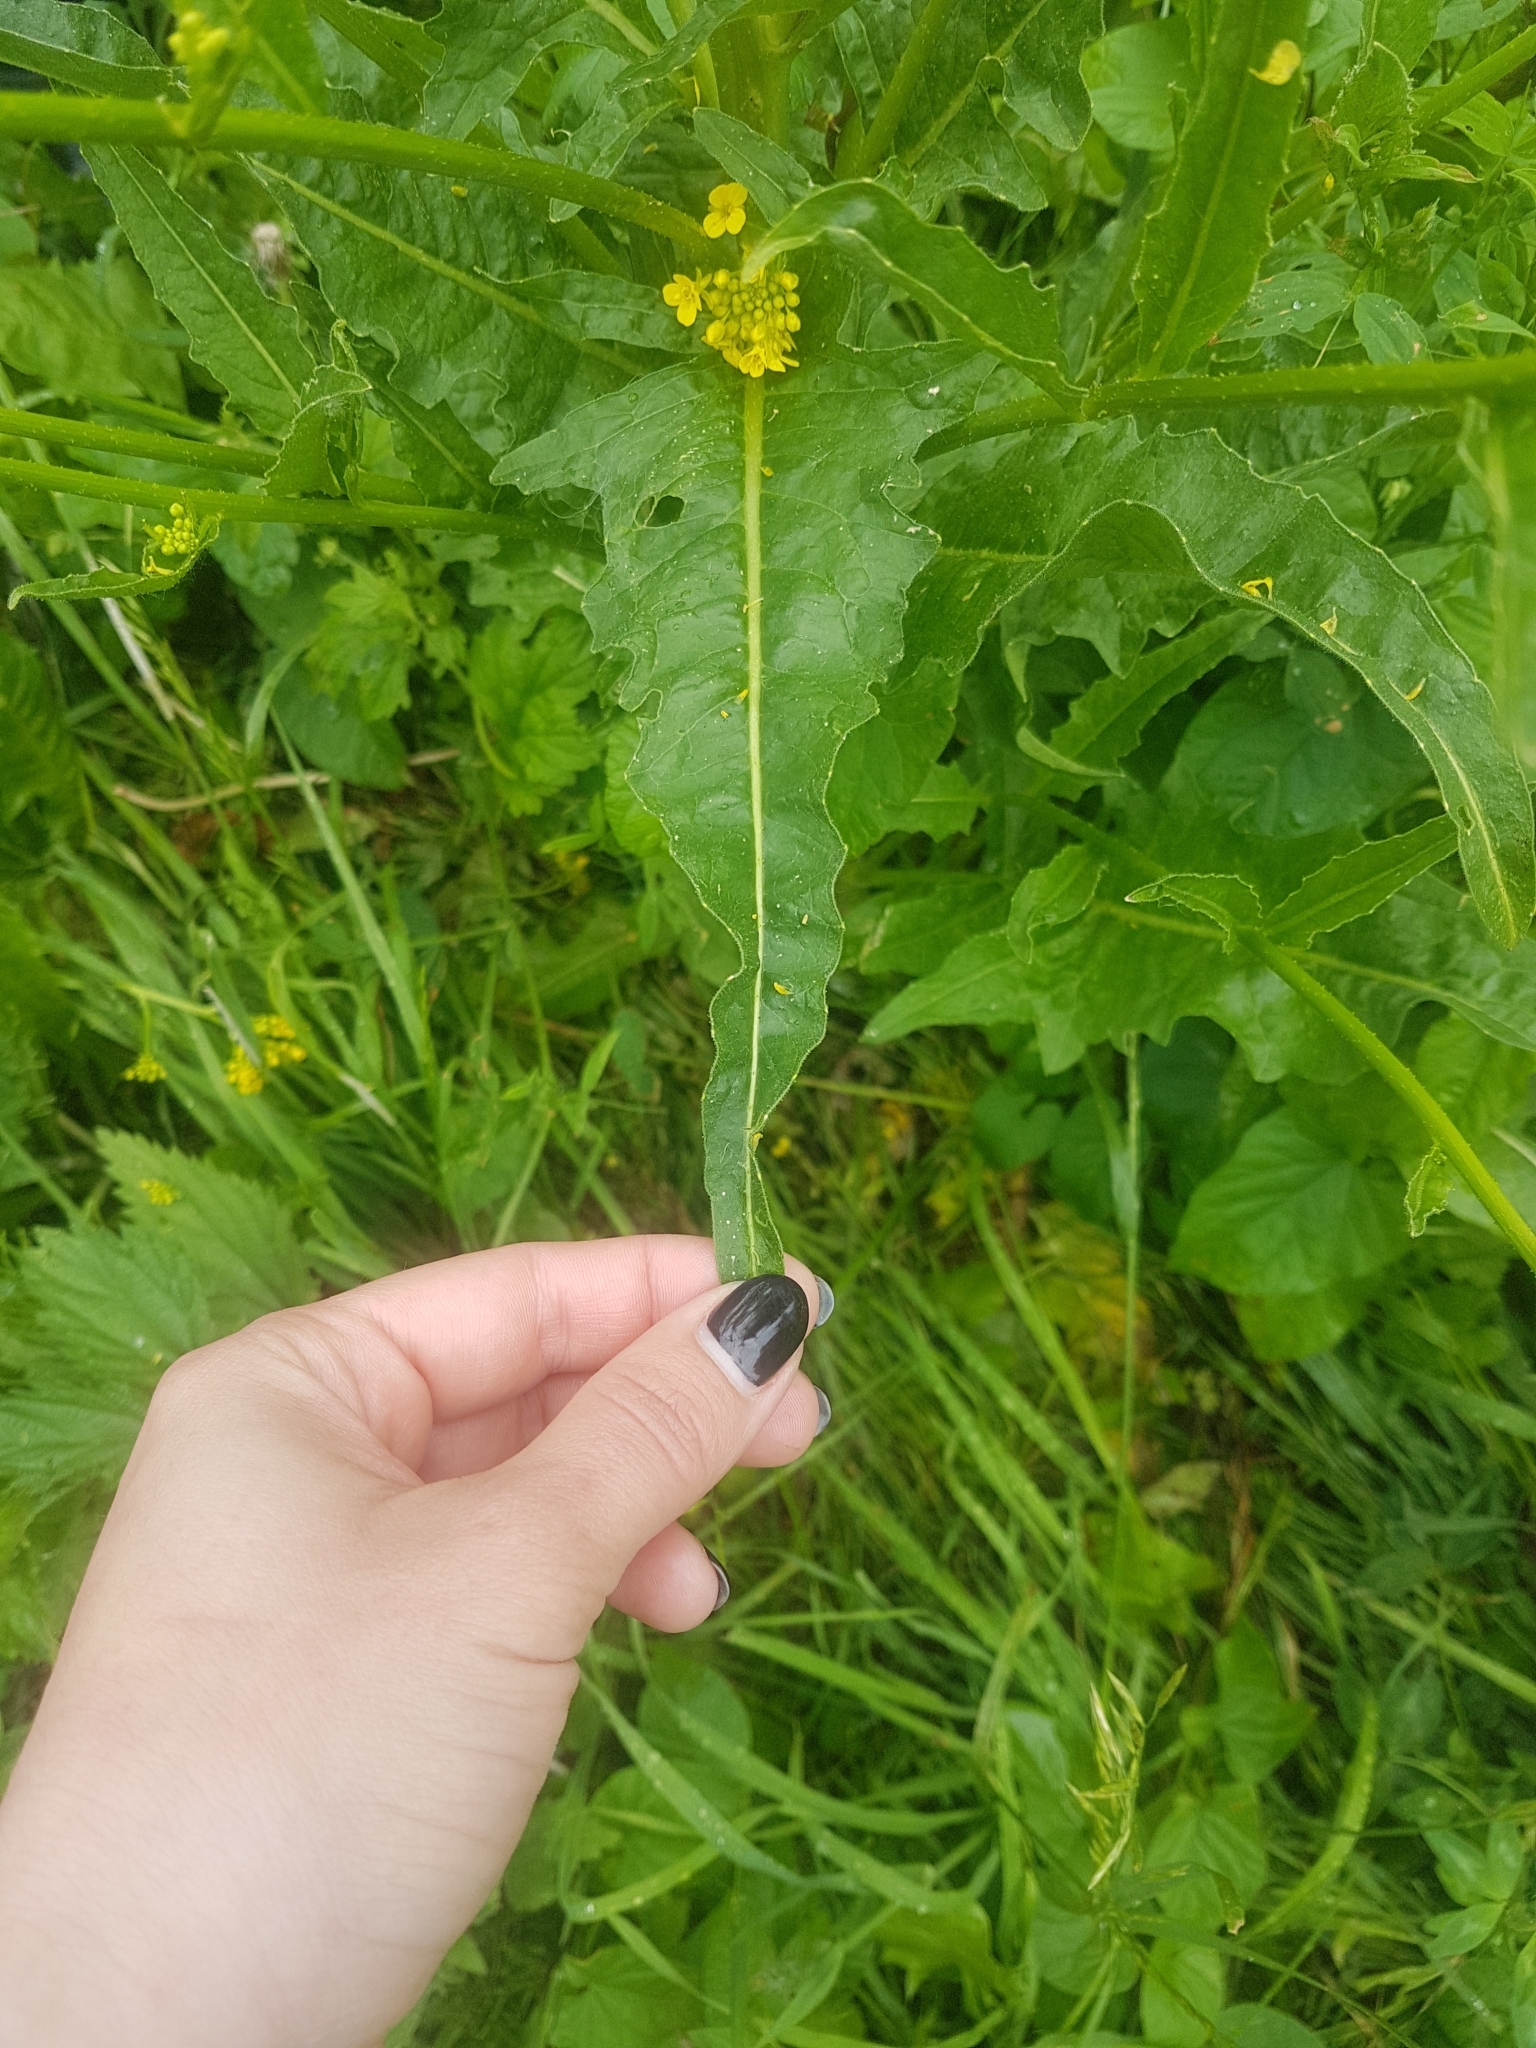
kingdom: Plantae
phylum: Tracheophyta
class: Magnoliopsida
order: Brassicales
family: Brassicaceae
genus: Bunias
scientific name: Bunias orientalis
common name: Warty-cabbage
